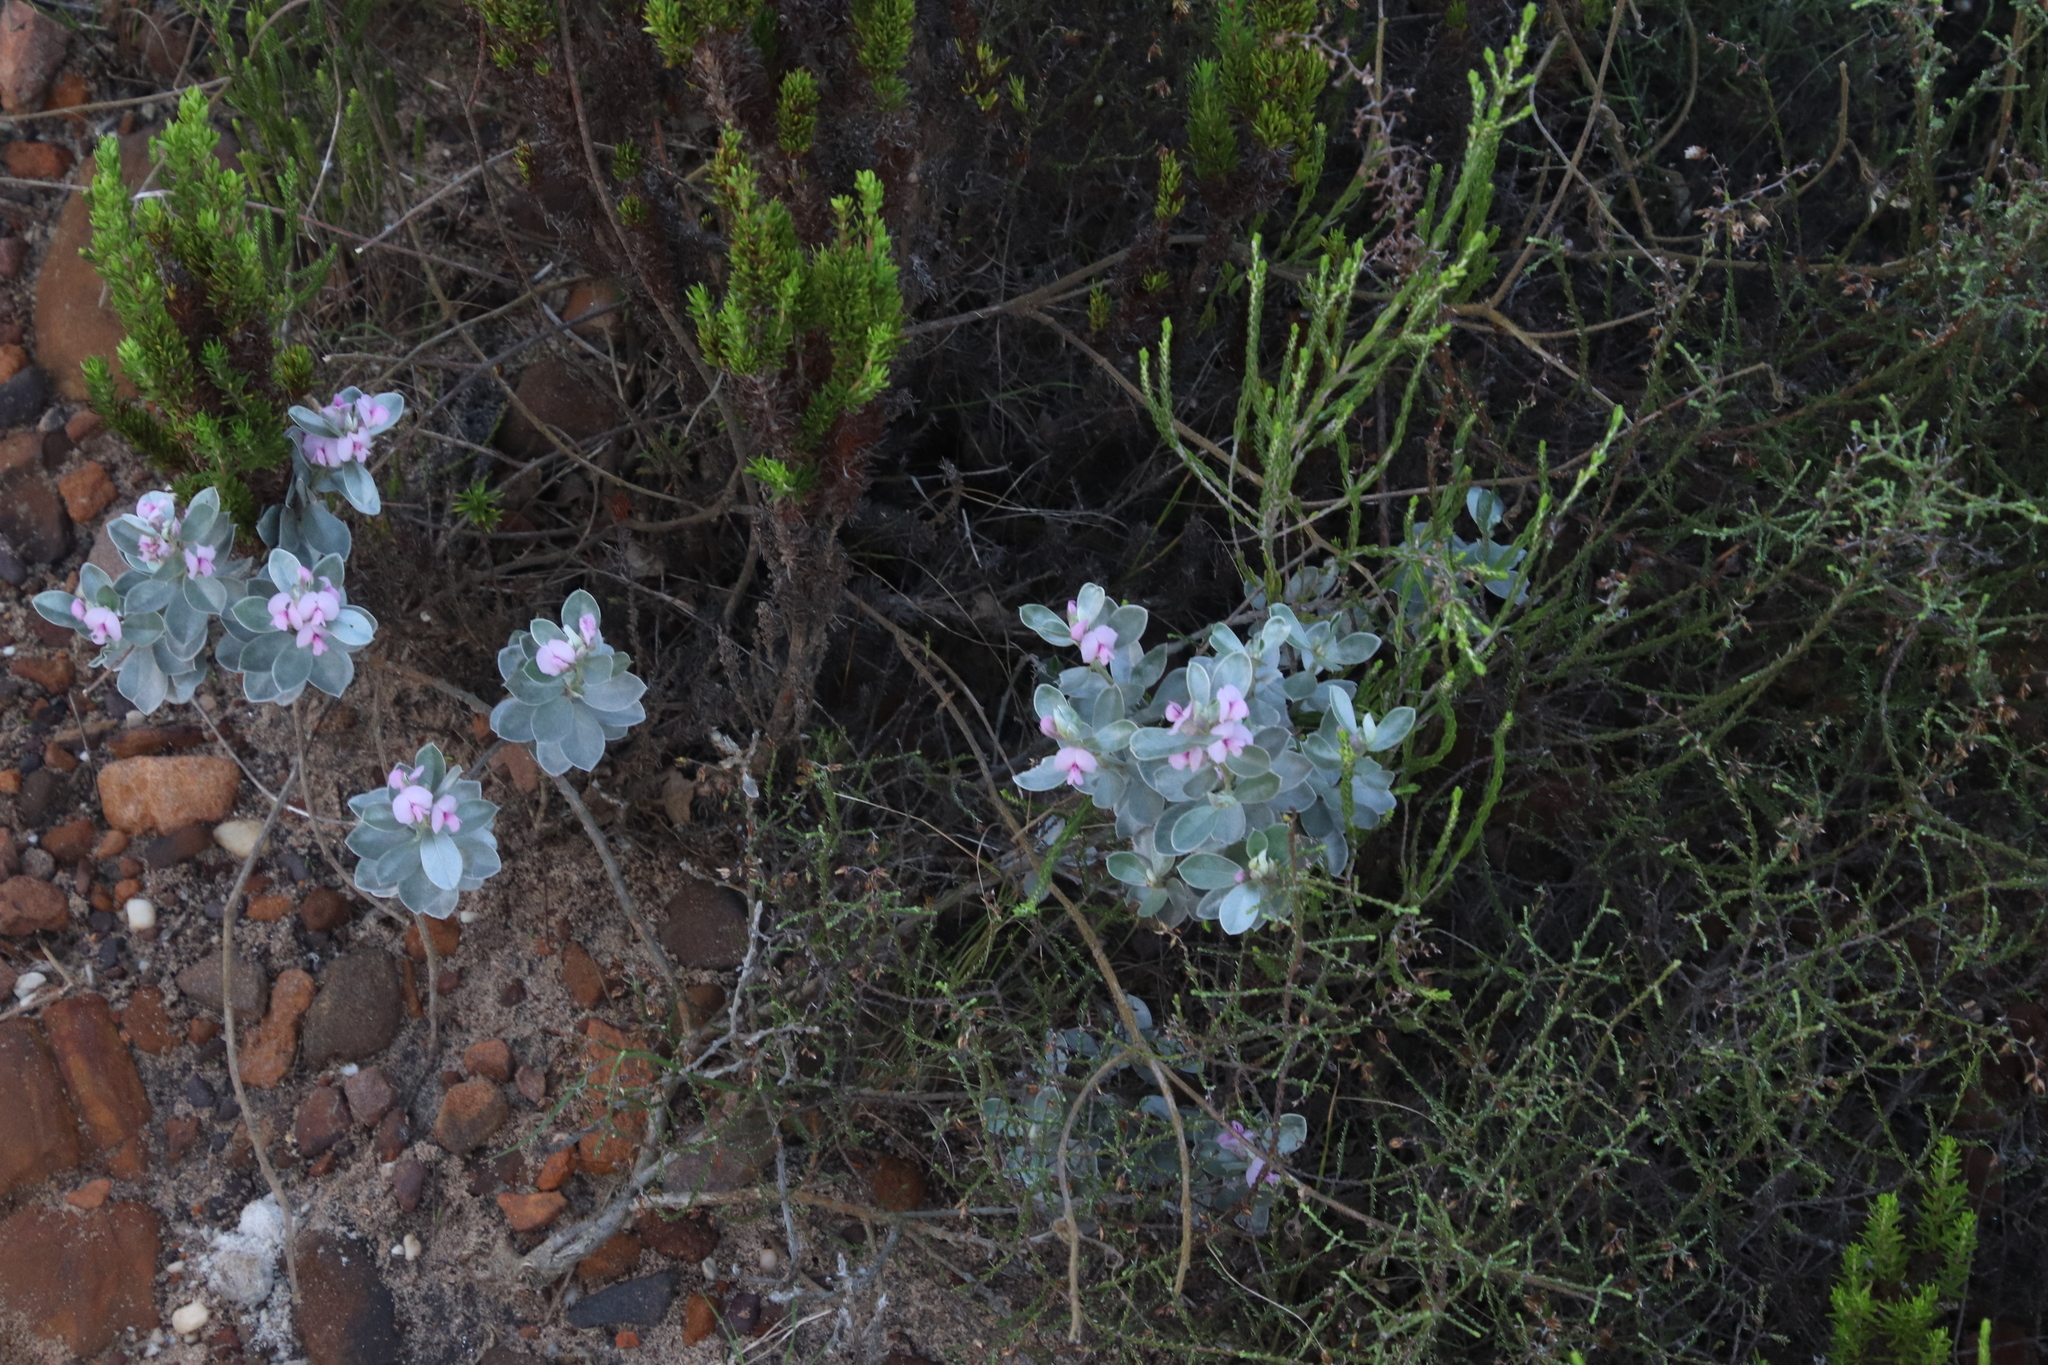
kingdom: Plantae
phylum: Tracheophyta
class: Magnoliopsida
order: Fabales
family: Fabaceae
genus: Podalyria
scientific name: Podalyria sericea
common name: Silver podalyria
